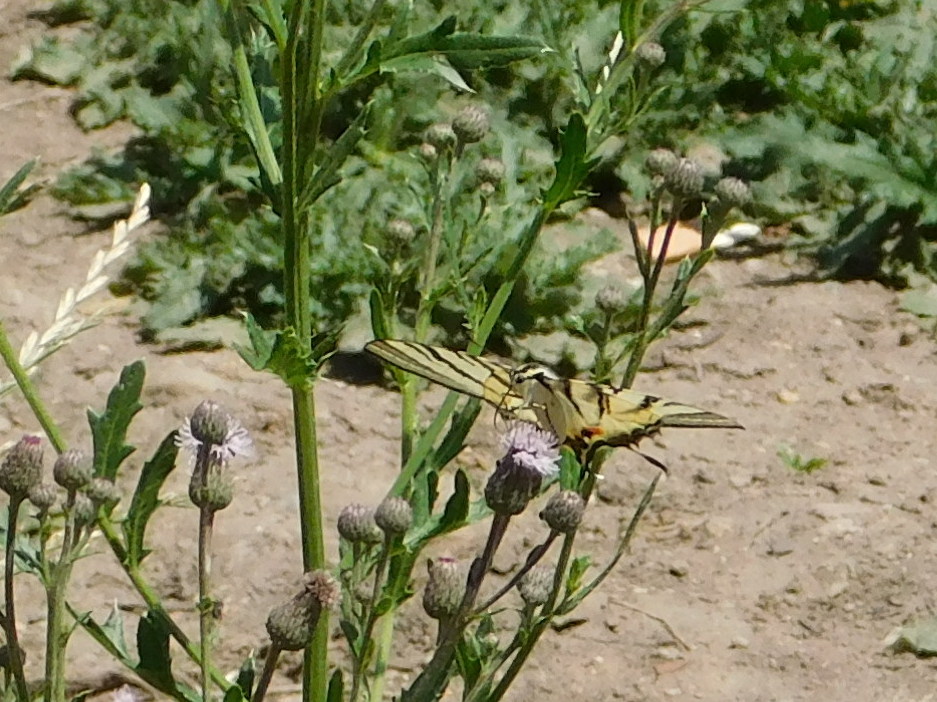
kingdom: Animalia
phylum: Arthropoda
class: Insecta
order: Lepidoptera
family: Papilionidae
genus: Iphiclides
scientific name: Iphiclides podalirius
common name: Scarce swallowtail
